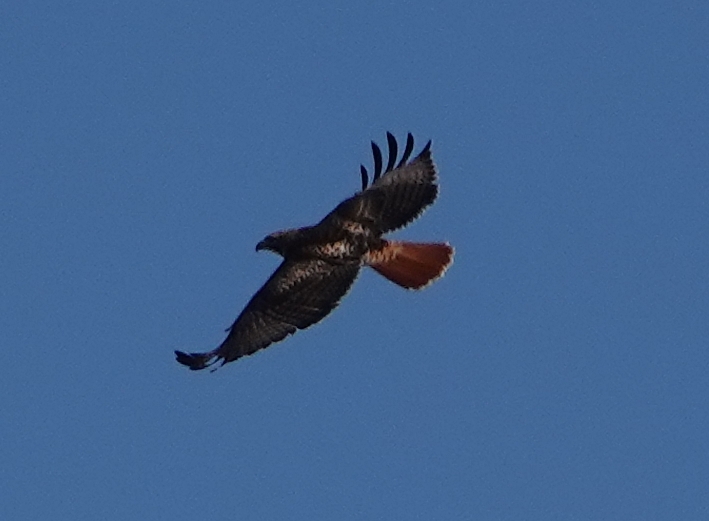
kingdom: Animalia
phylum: Chordata
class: Aves
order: Accipitriformes
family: Accipitridae
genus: Buteo
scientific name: Buteo jamaicensis
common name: Red-tailed hawk
